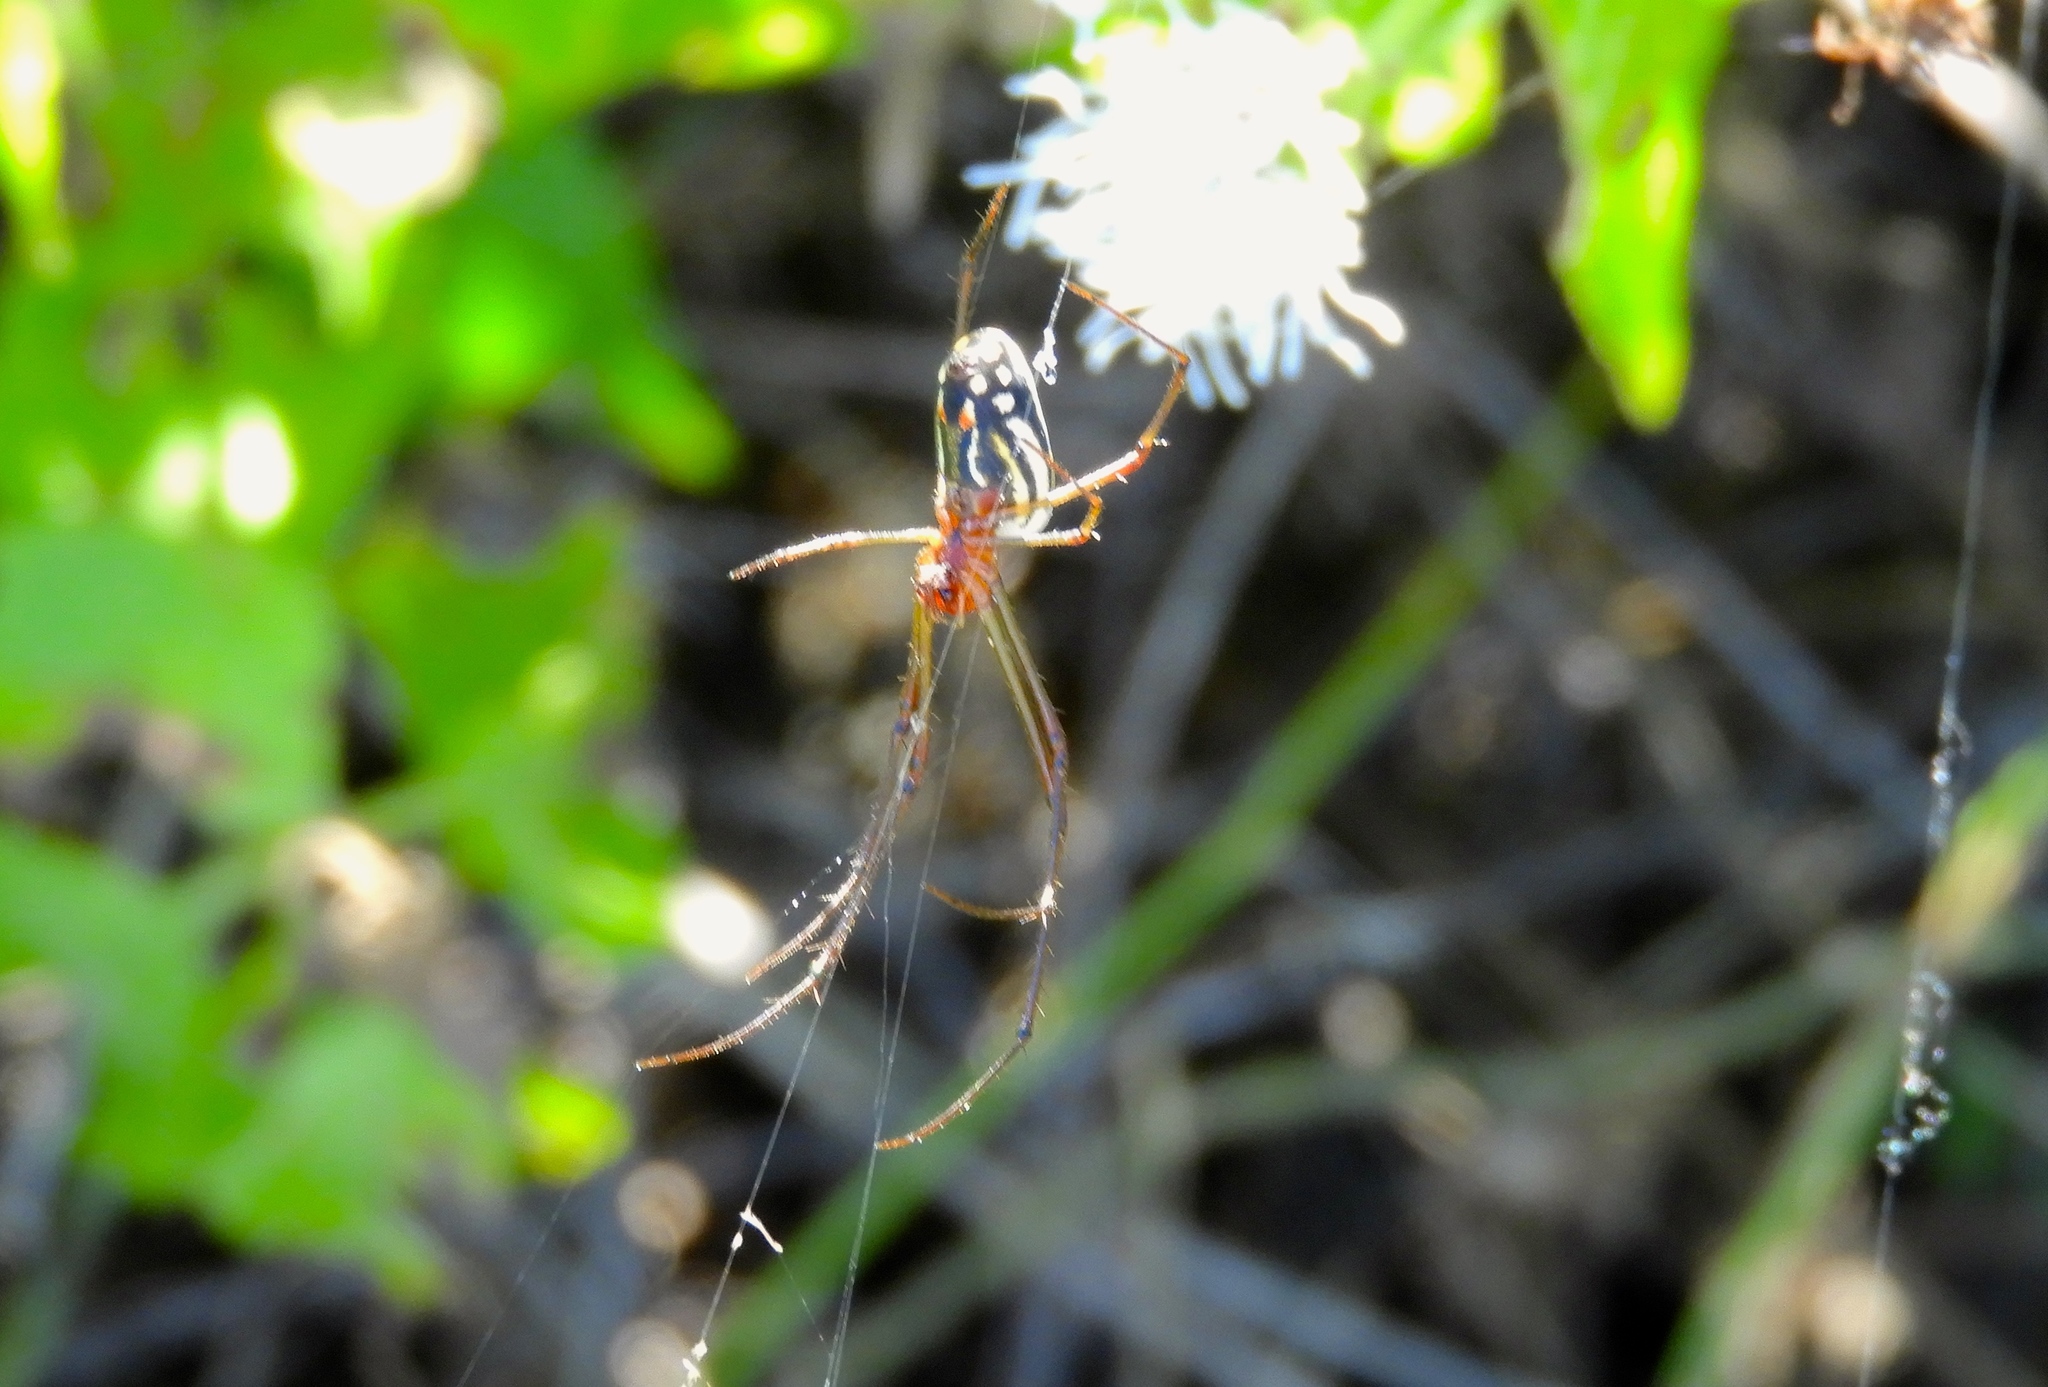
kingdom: Animalia
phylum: Arthropoda
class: Arachnida
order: Araneae
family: Tetragnathidae
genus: Leucauge
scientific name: Leucauge
